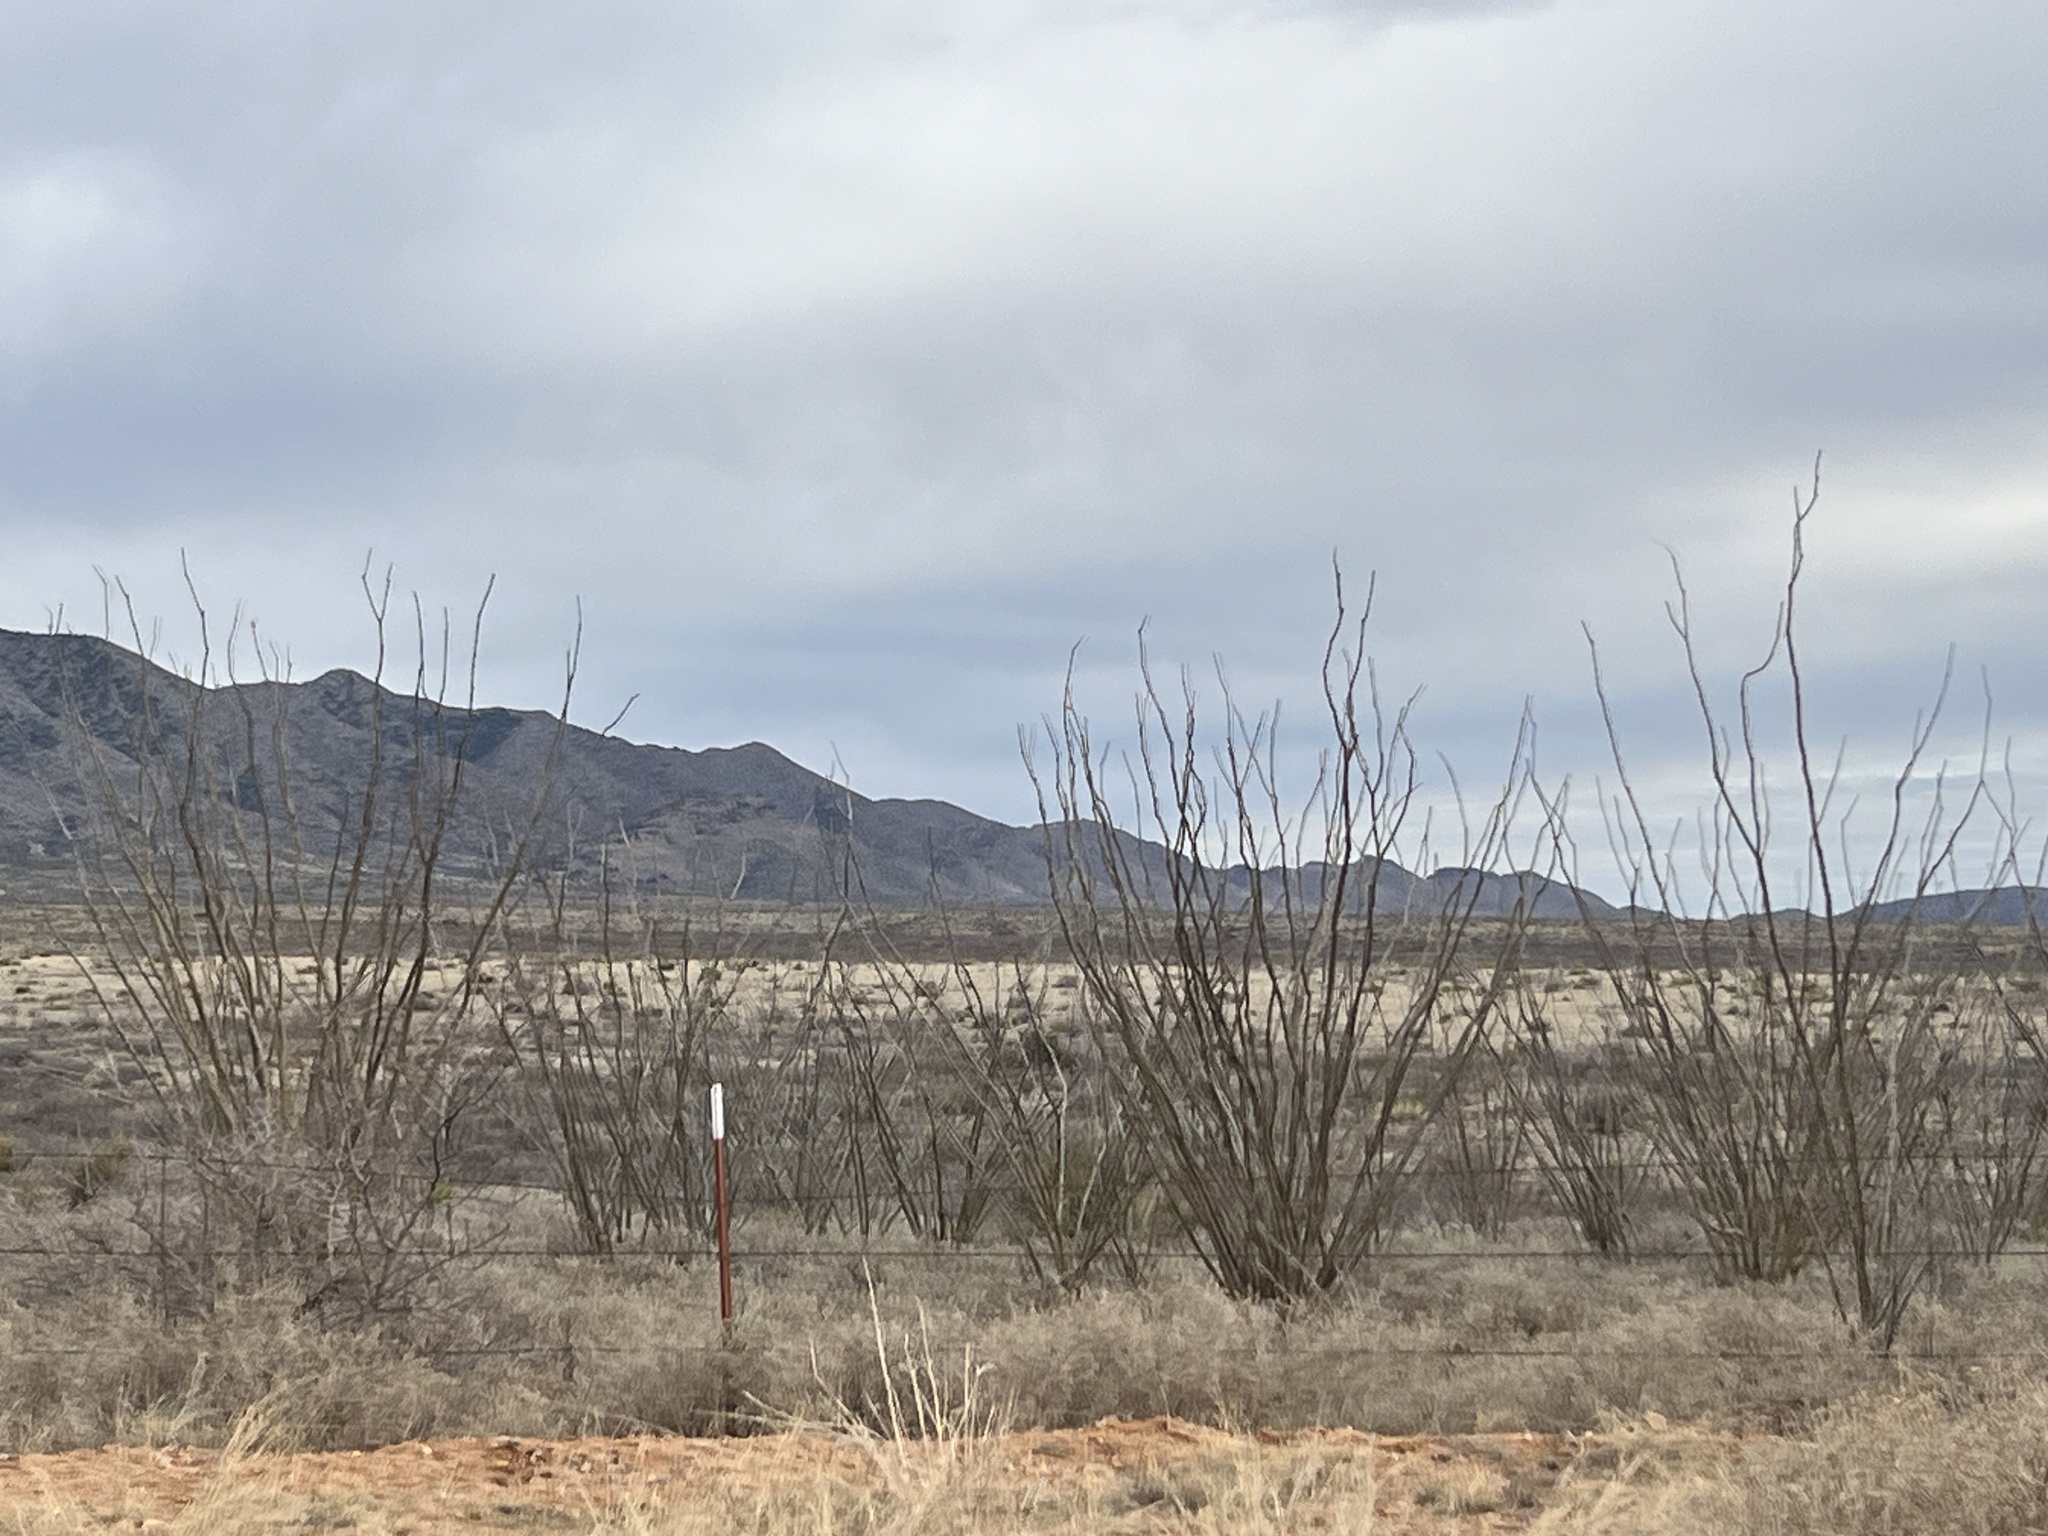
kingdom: Plantae
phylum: Tracheophyta
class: Magnoliopsida
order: Ericales
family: Fouquieriaceae
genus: Fouquieria
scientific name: Fouquieria splendens
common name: Vine-cactus
